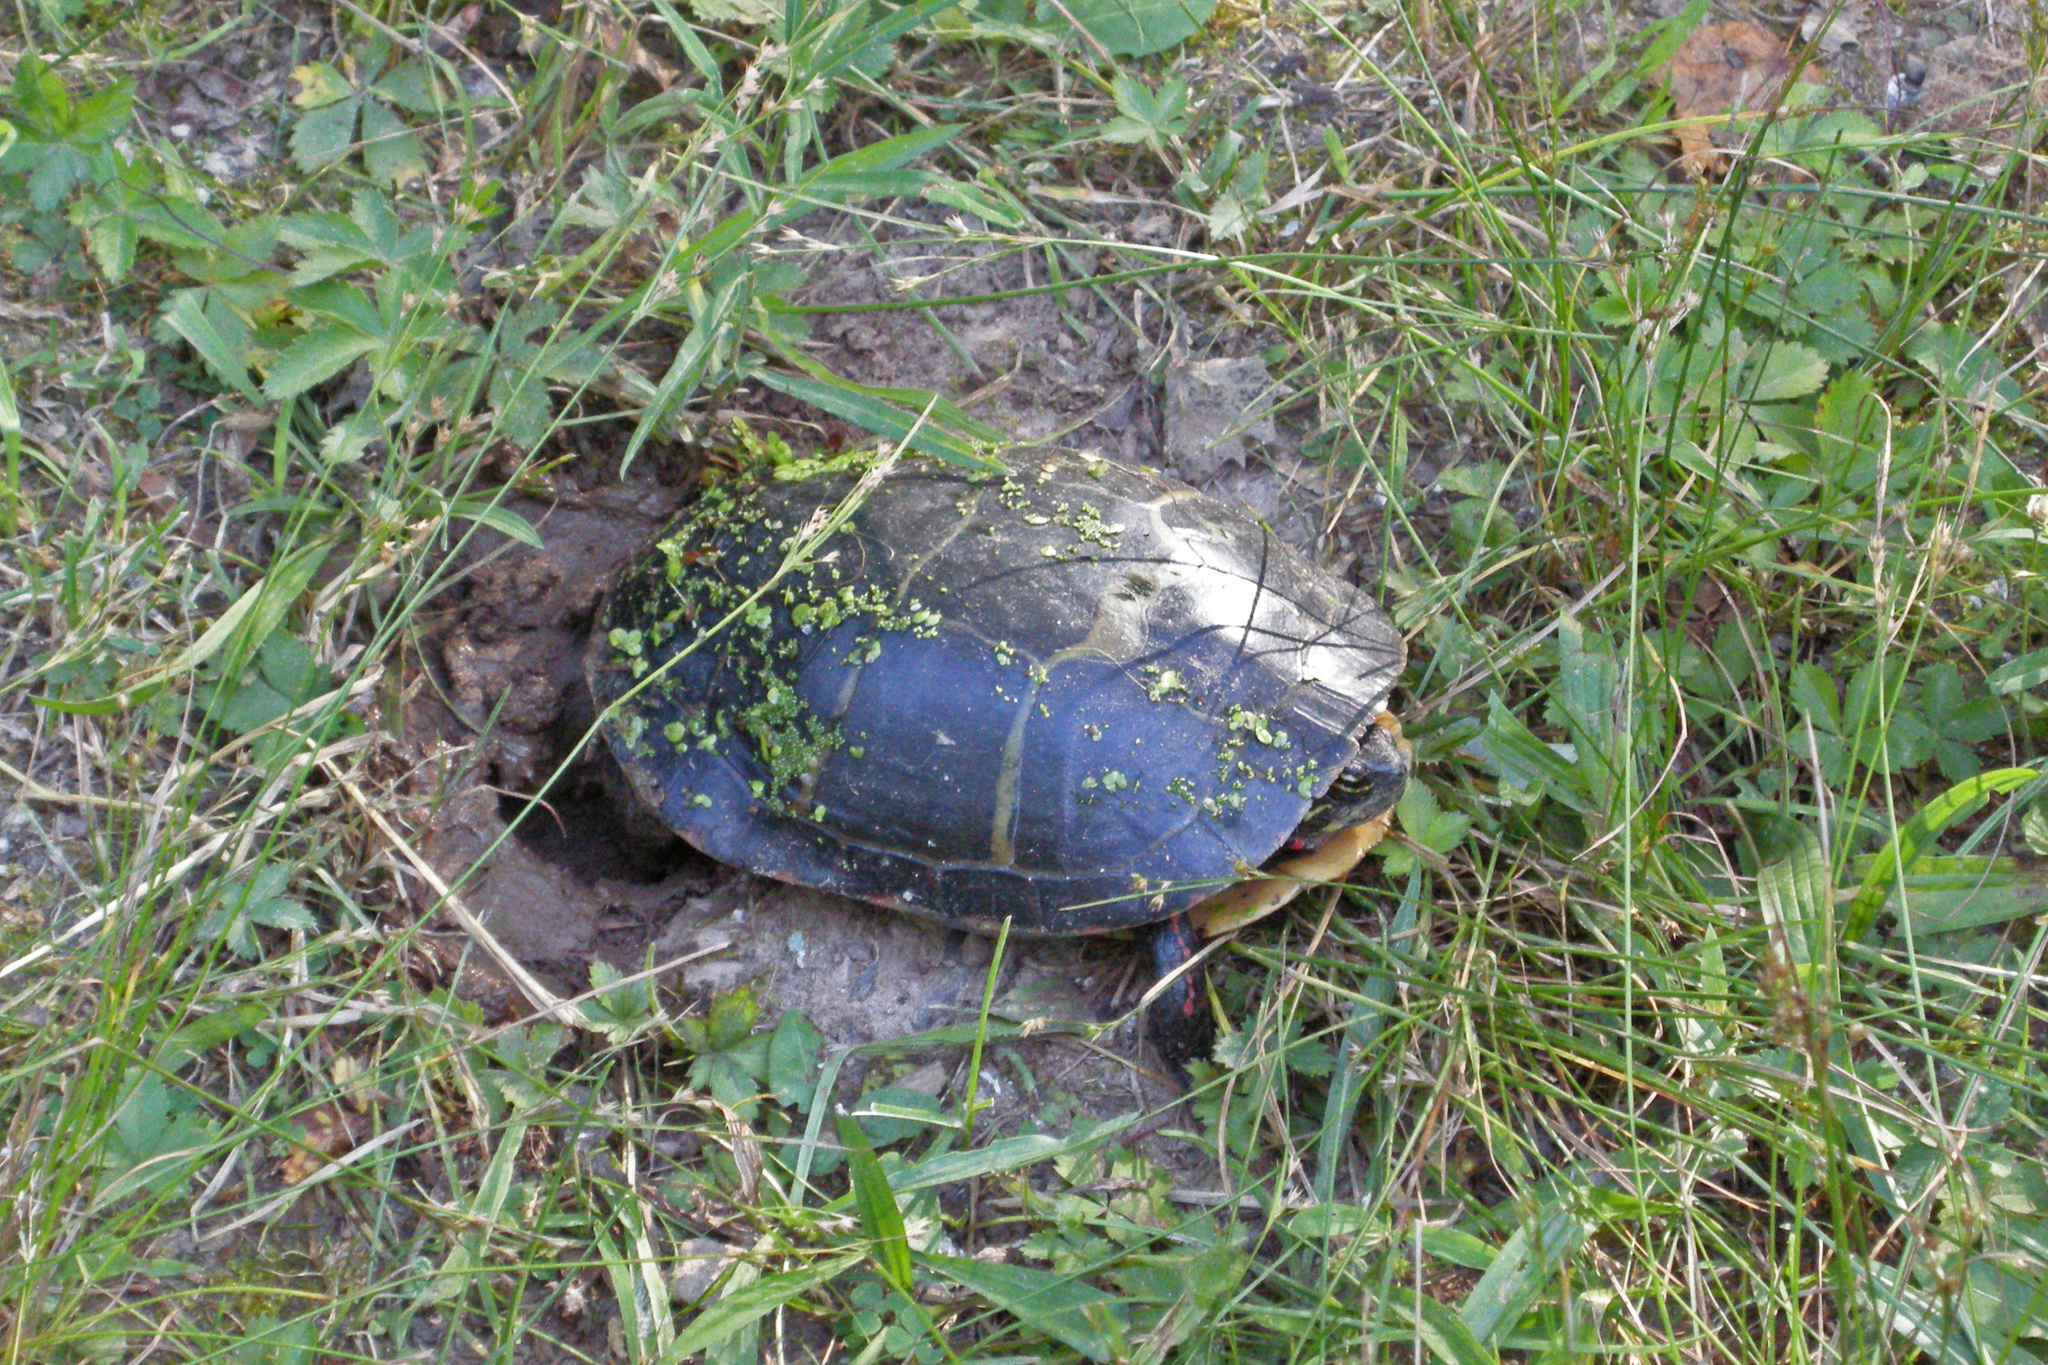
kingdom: Animalia
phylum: Chordata
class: Testudines
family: Emydidae
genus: Chrysemys
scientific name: Chrysemys picta
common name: Painted turtle
